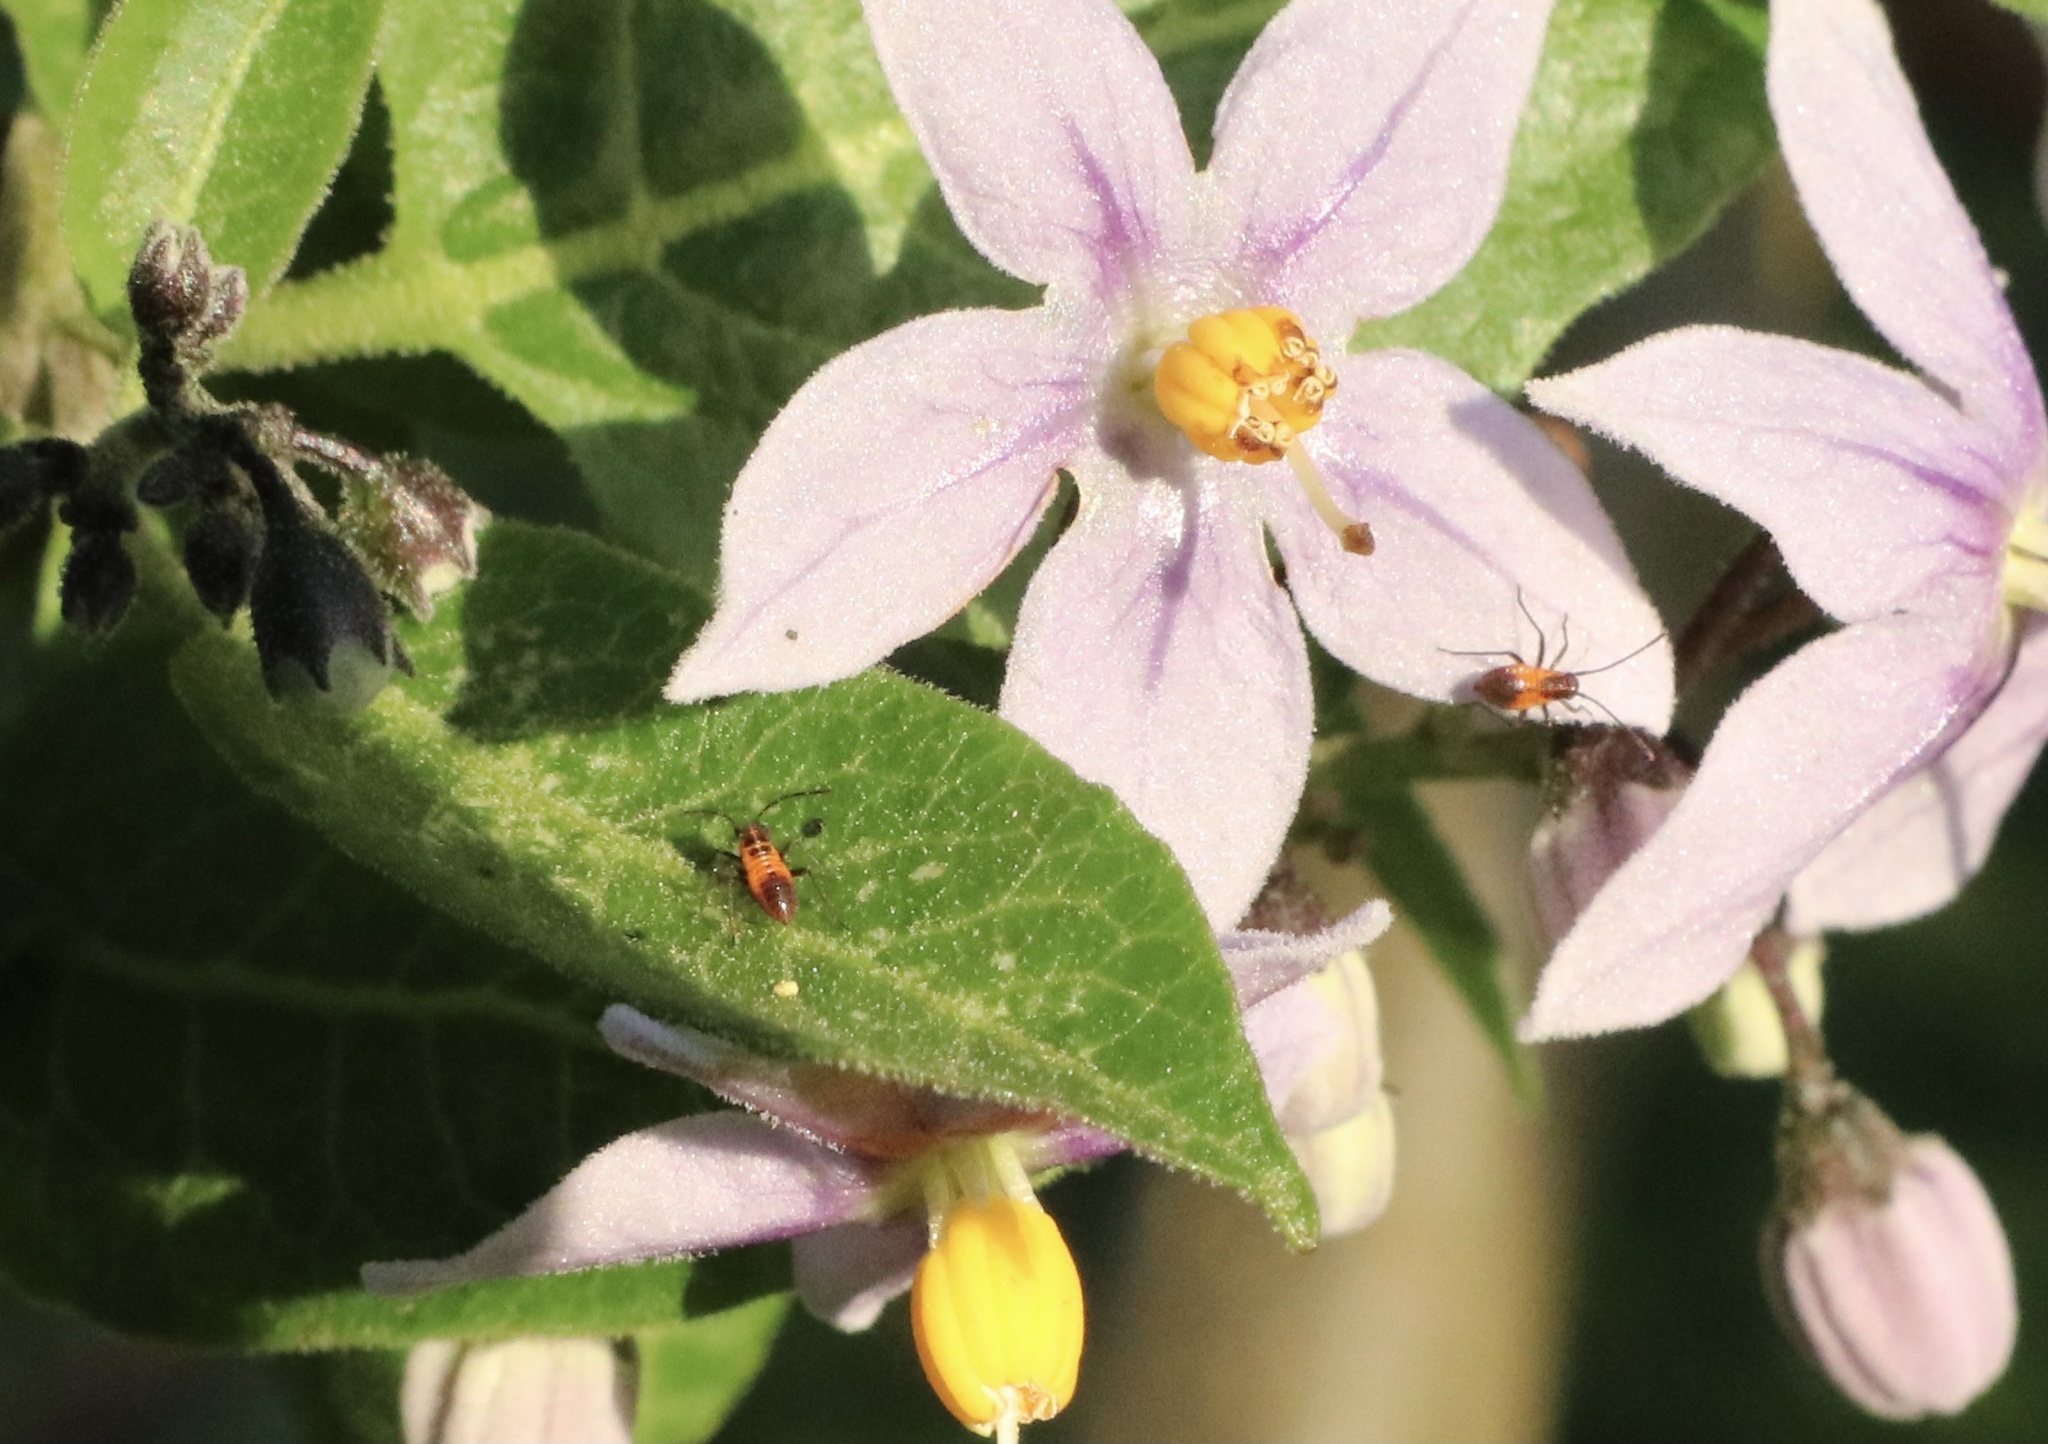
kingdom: Animalia
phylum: Arthropoda
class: Insecta
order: Hemiptera
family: Miridae
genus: Eurylomata
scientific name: Eurylomata picturata
